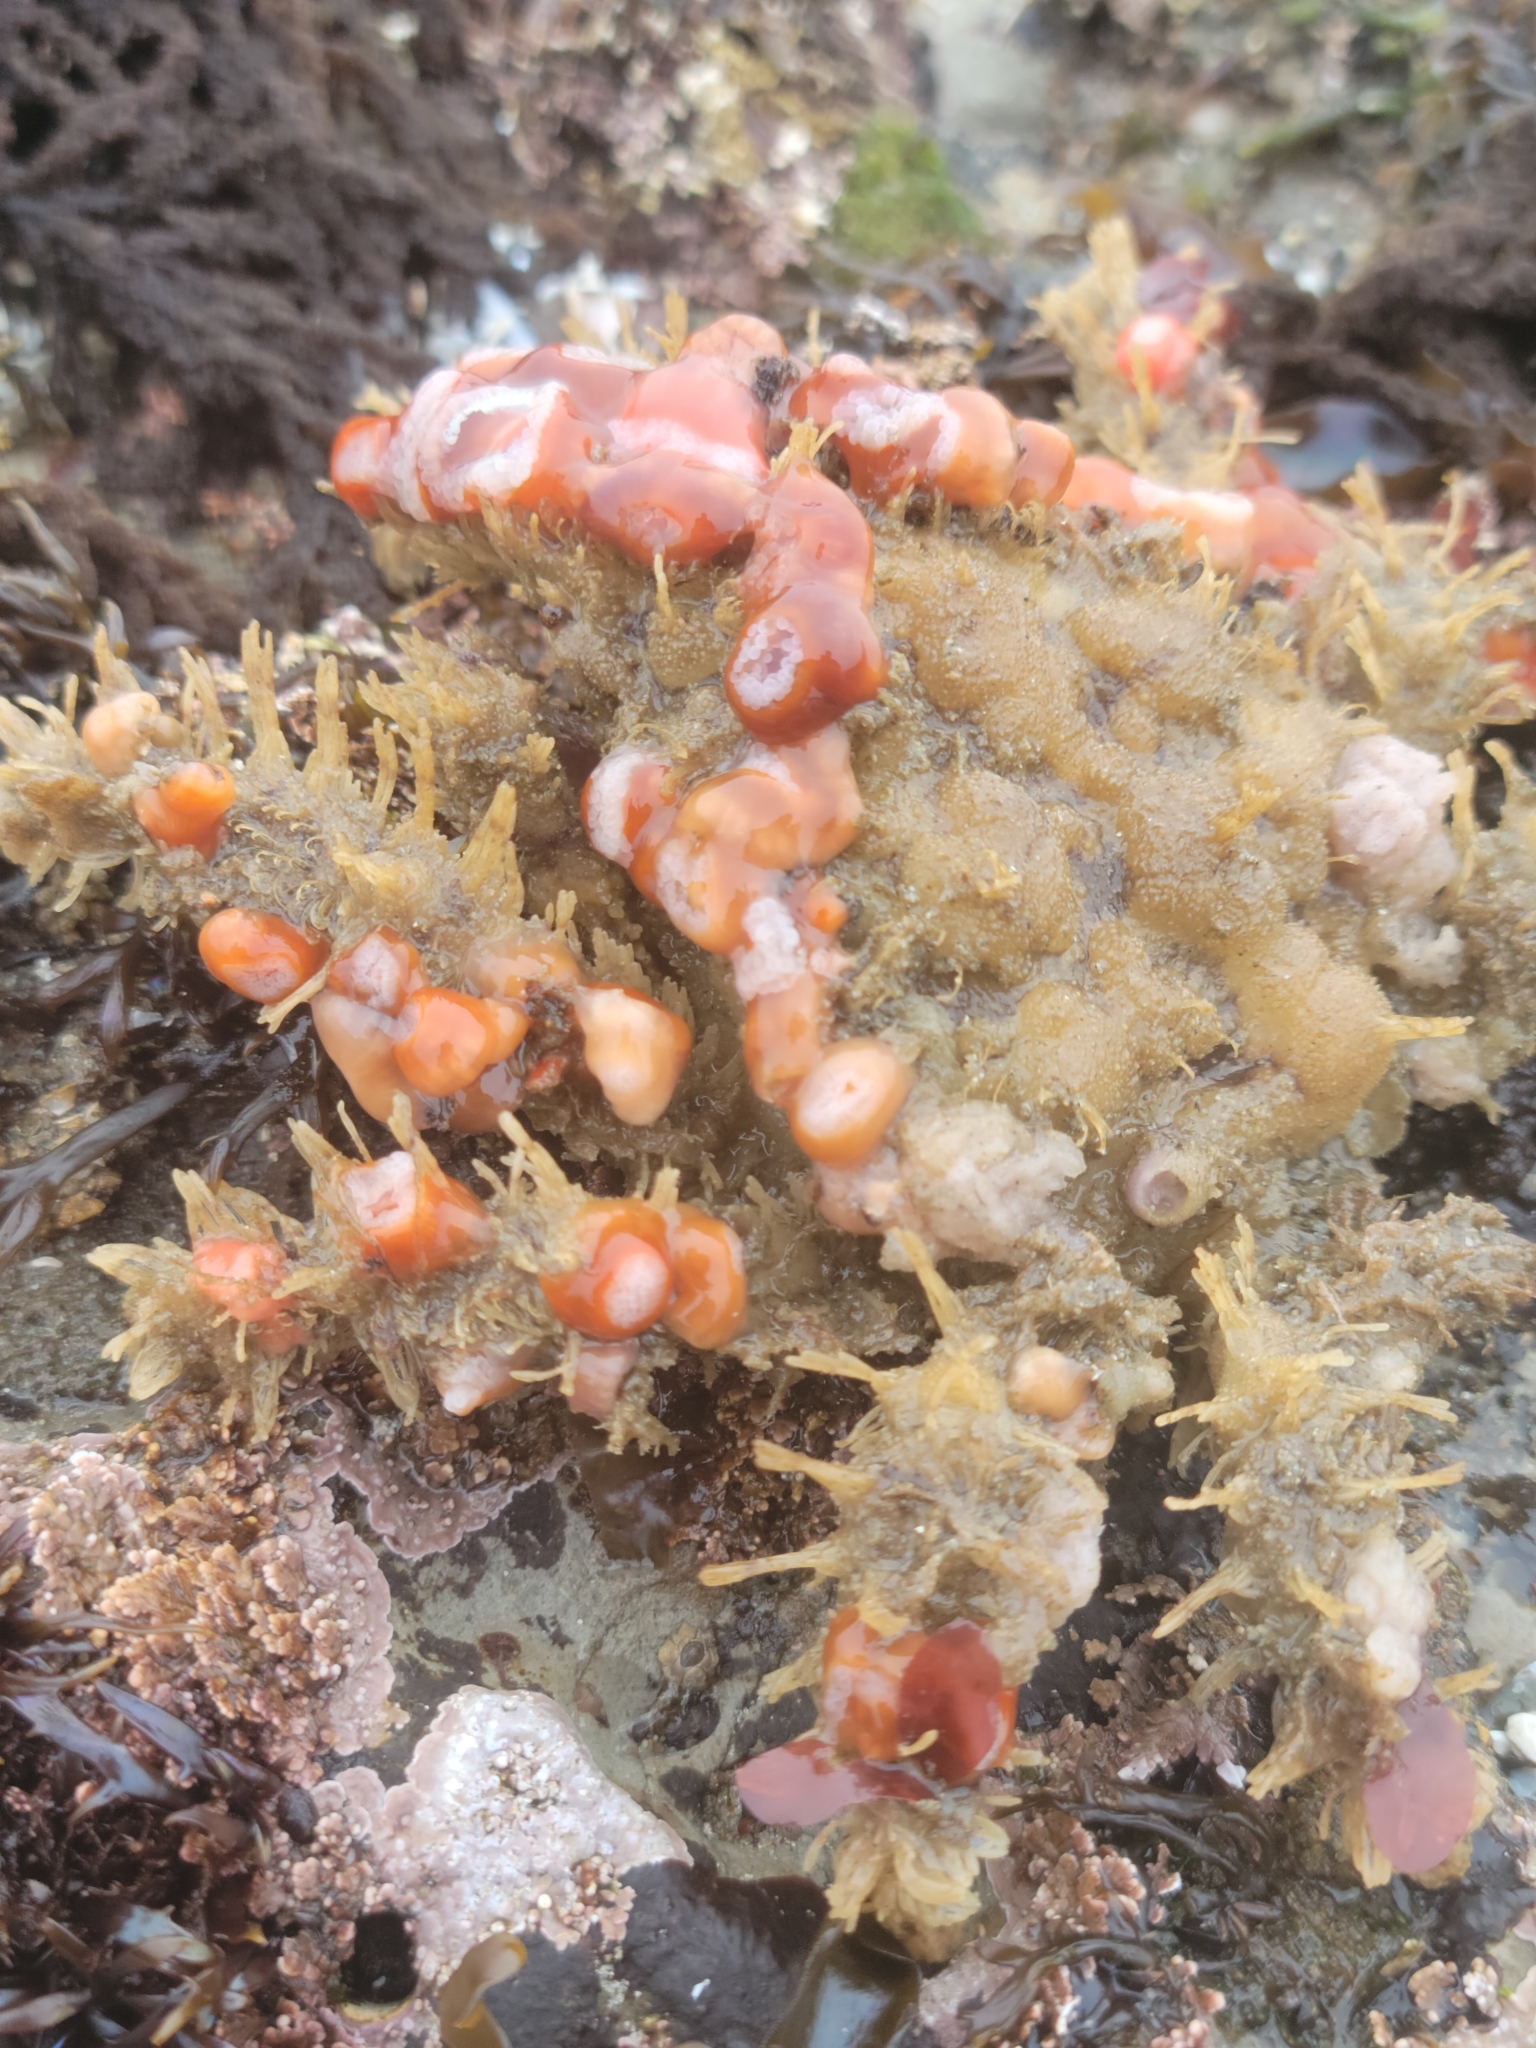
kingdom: Animalia
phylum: Arthropoda
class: Malacostraca
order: Decapoda
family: Epialtidae
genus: Loxorhynchus
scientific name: Loxorhynchus crispatus
